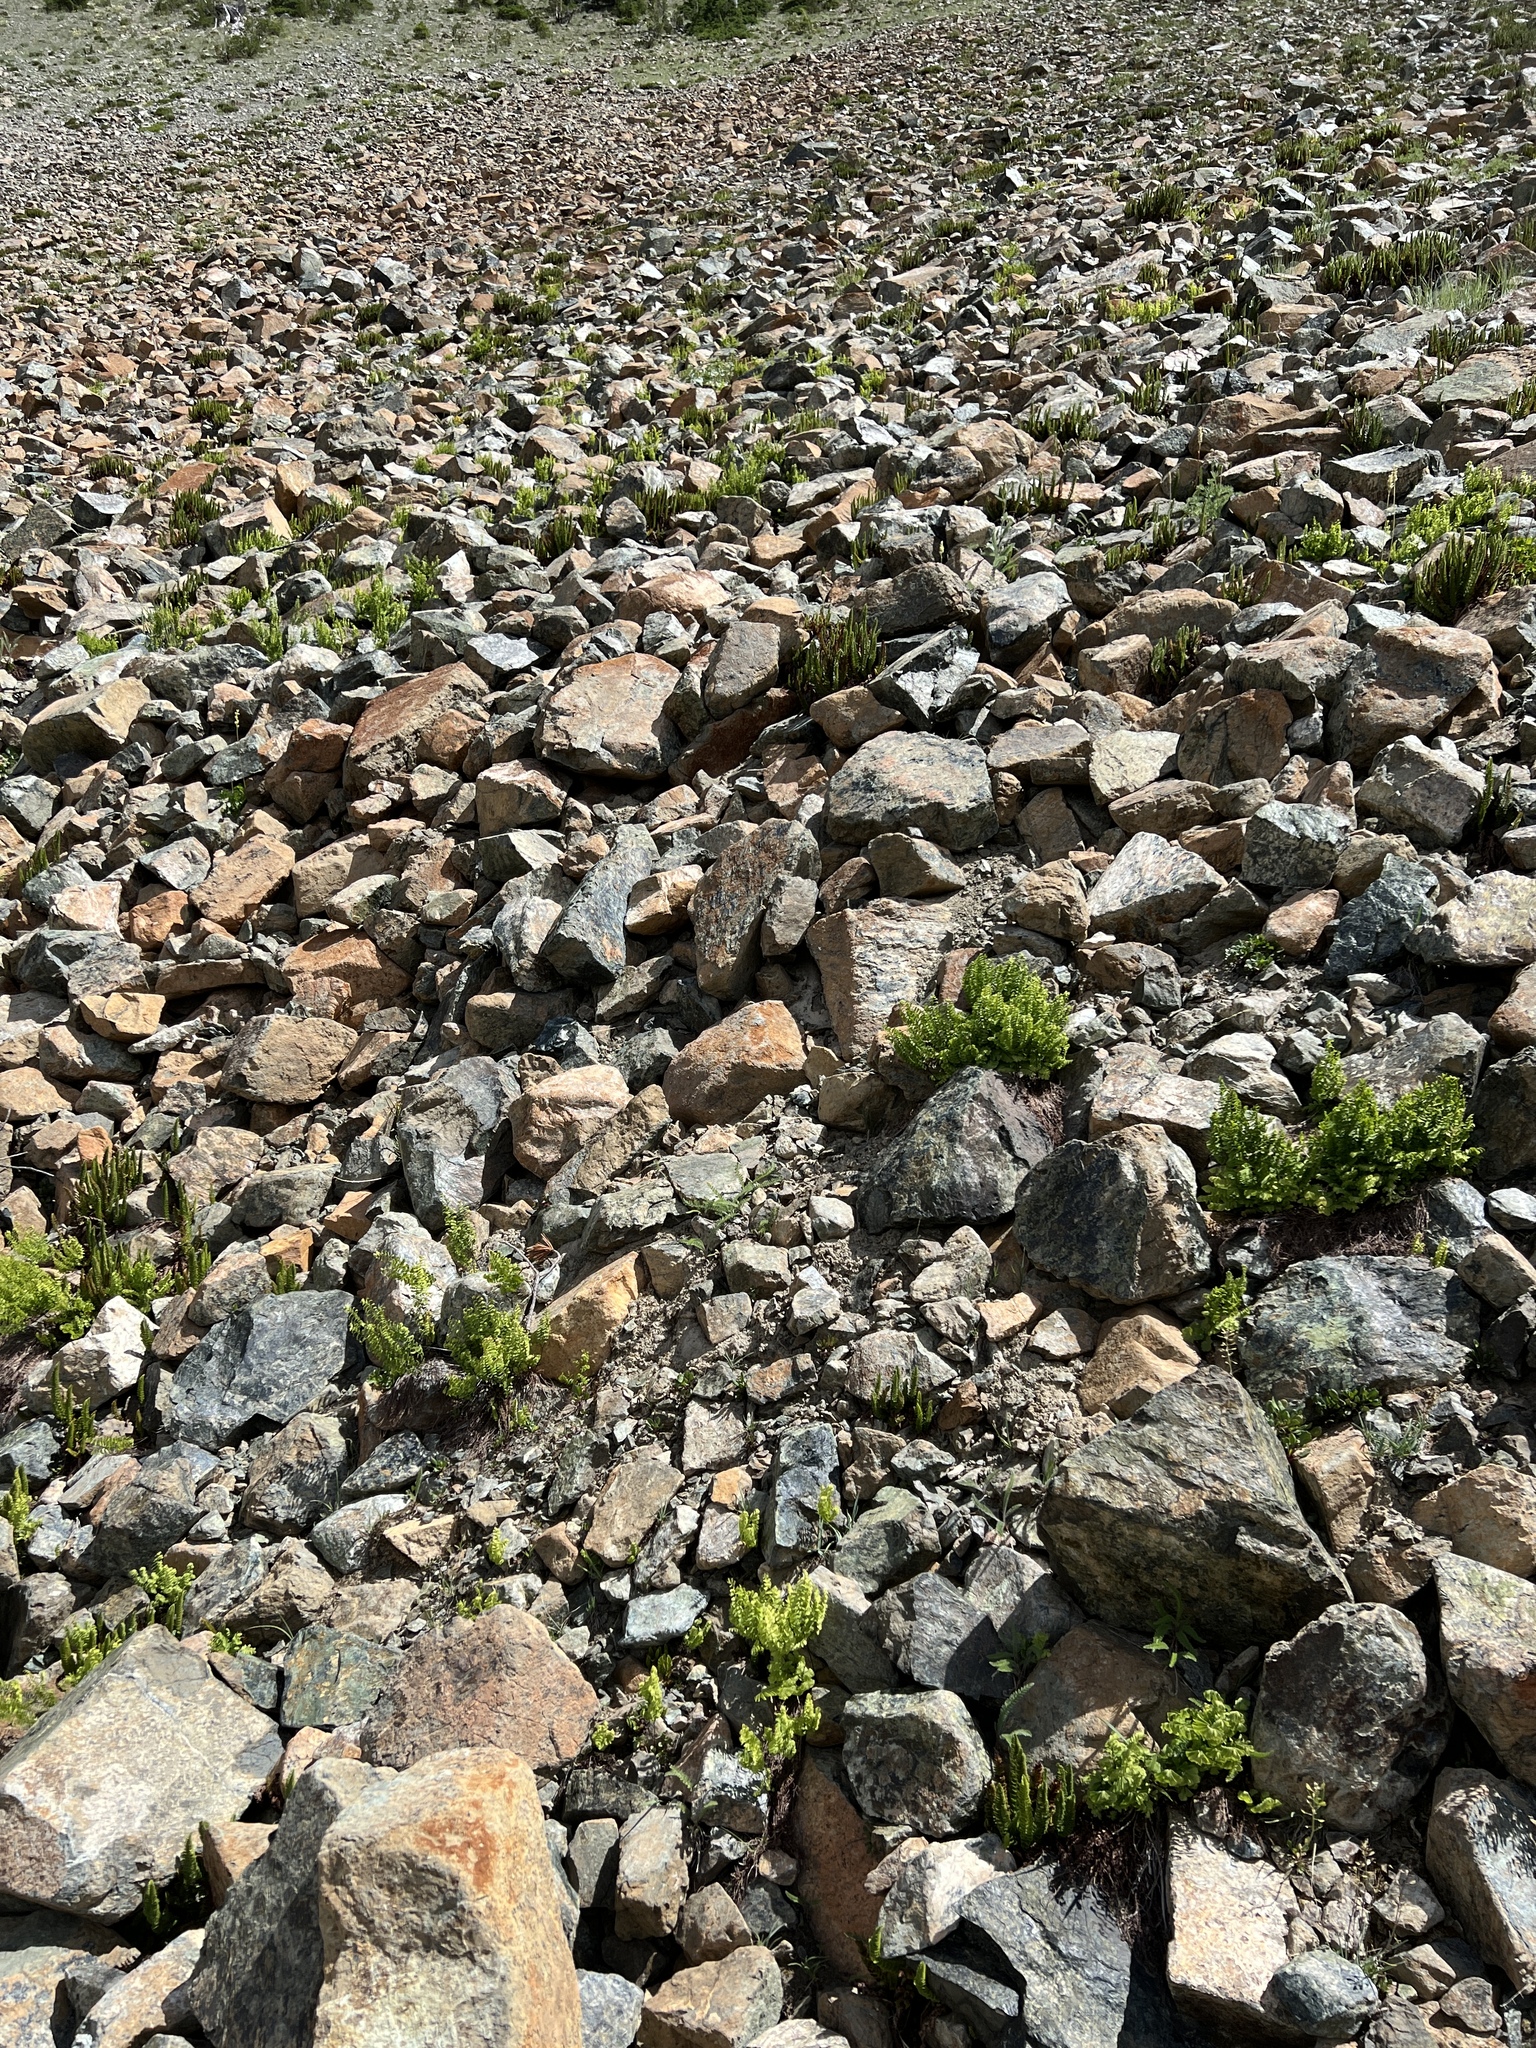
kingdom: Plantae
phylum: Tracheophyta
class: Polypodiopsida
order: Polypodiales
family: Pteridaceae
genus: Adiantum
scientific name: Adiantum aleuticum
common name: Aleutian maidenhair fern
